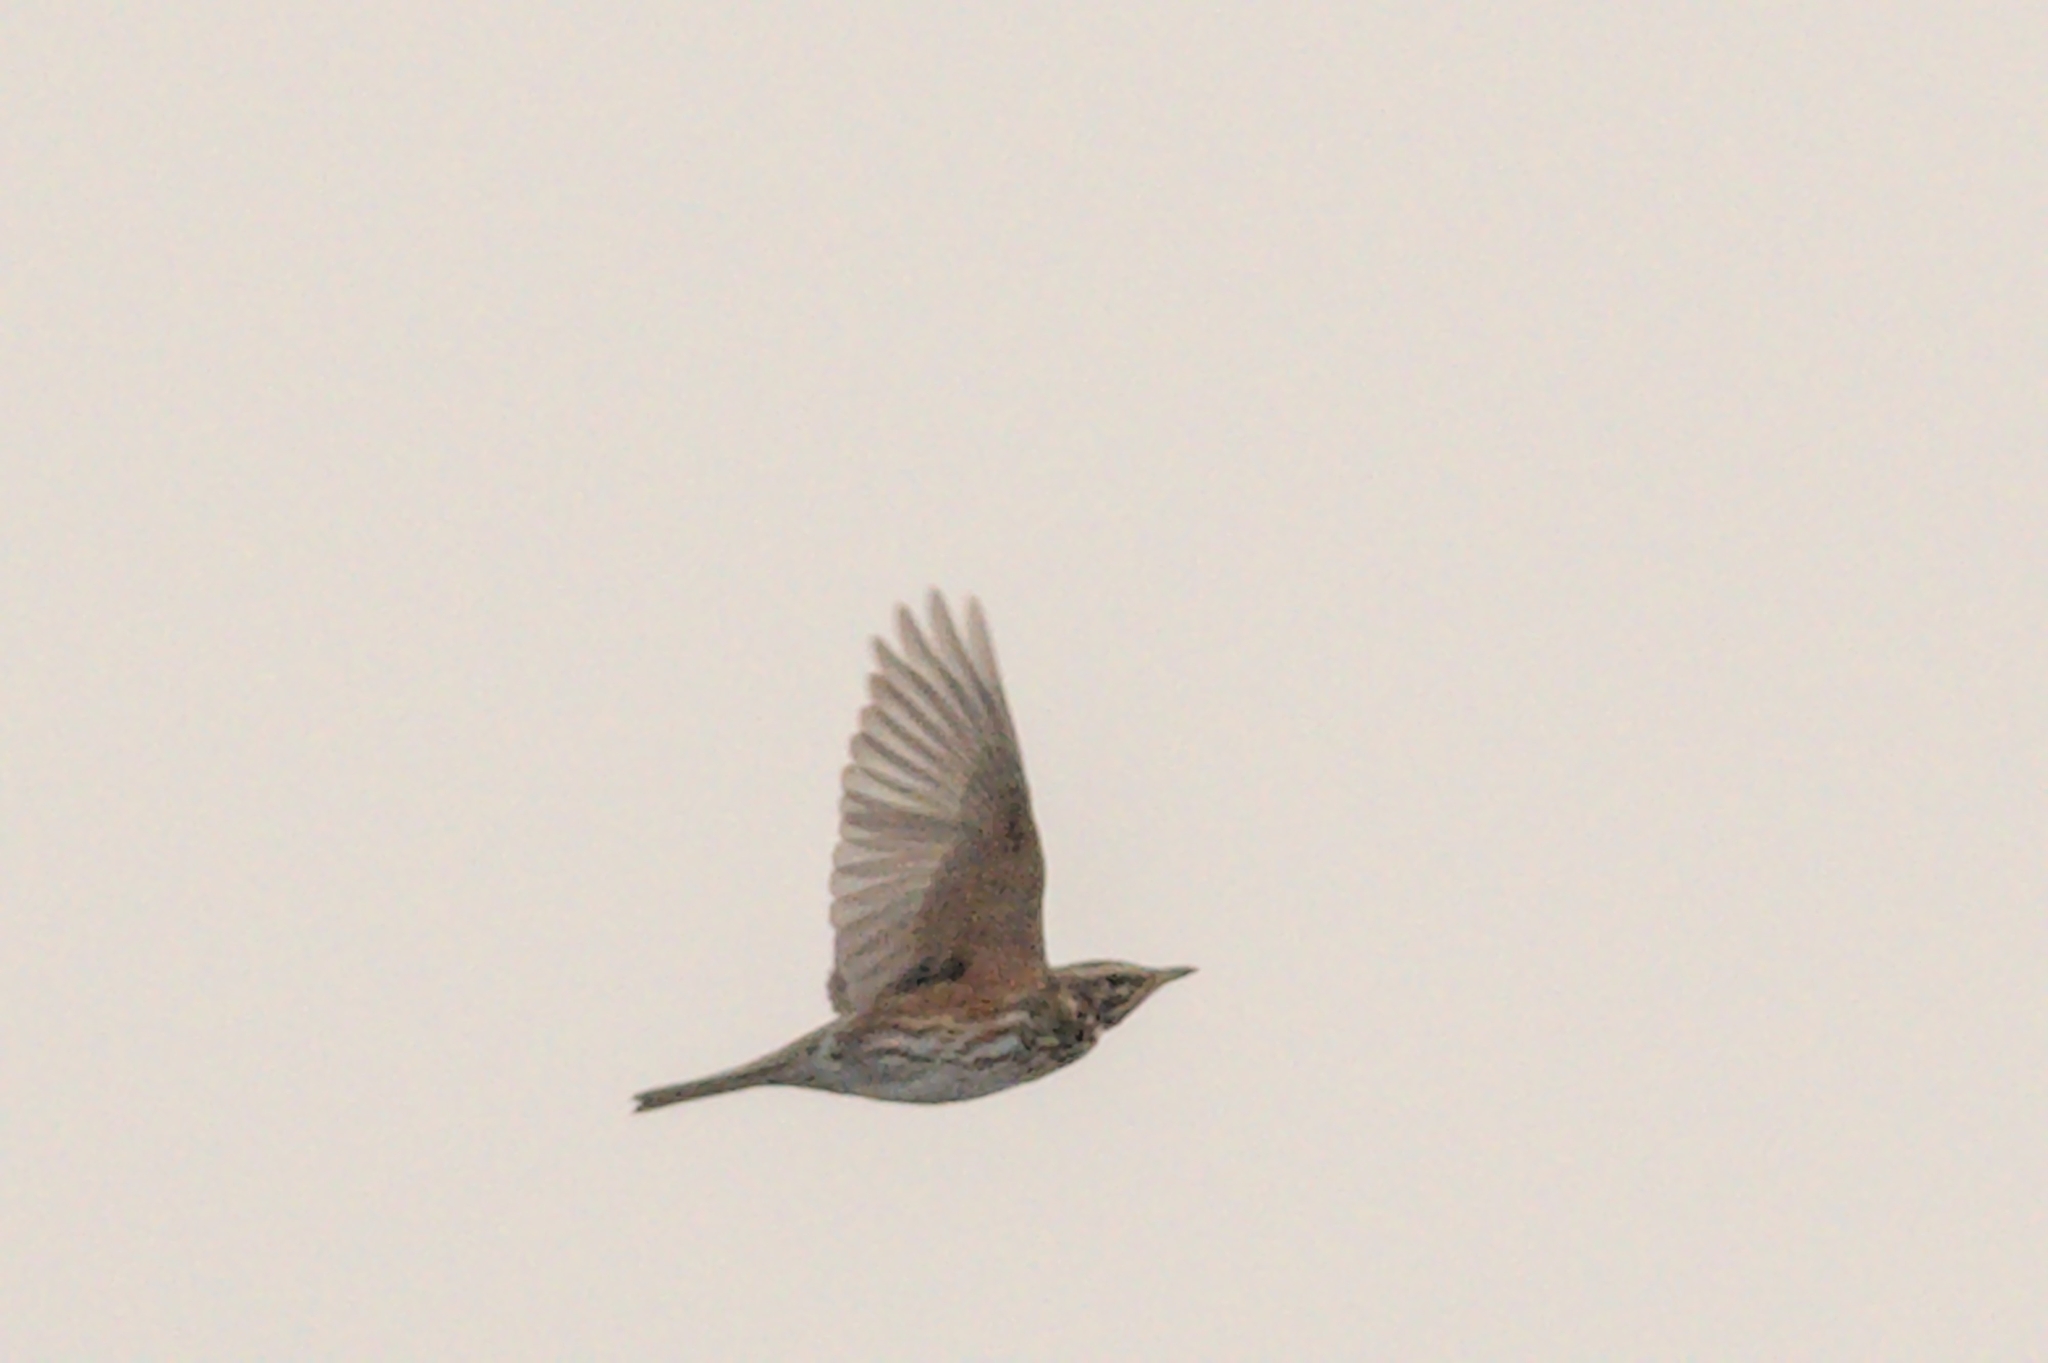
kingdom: Animalia
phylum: Chordata
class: Aves
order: Passeriformes
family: Turdidae
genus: Turdus
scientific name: Turdus iliacus
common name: Redwing
